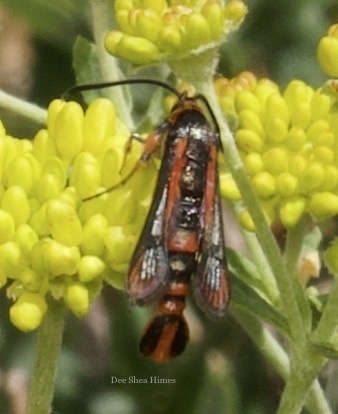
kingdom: Animalia
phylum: Arthropoda
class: Insecta
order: Lepidoptera
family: Sesiidae
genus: Synanthedon
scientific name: Synanthedon polygoni
